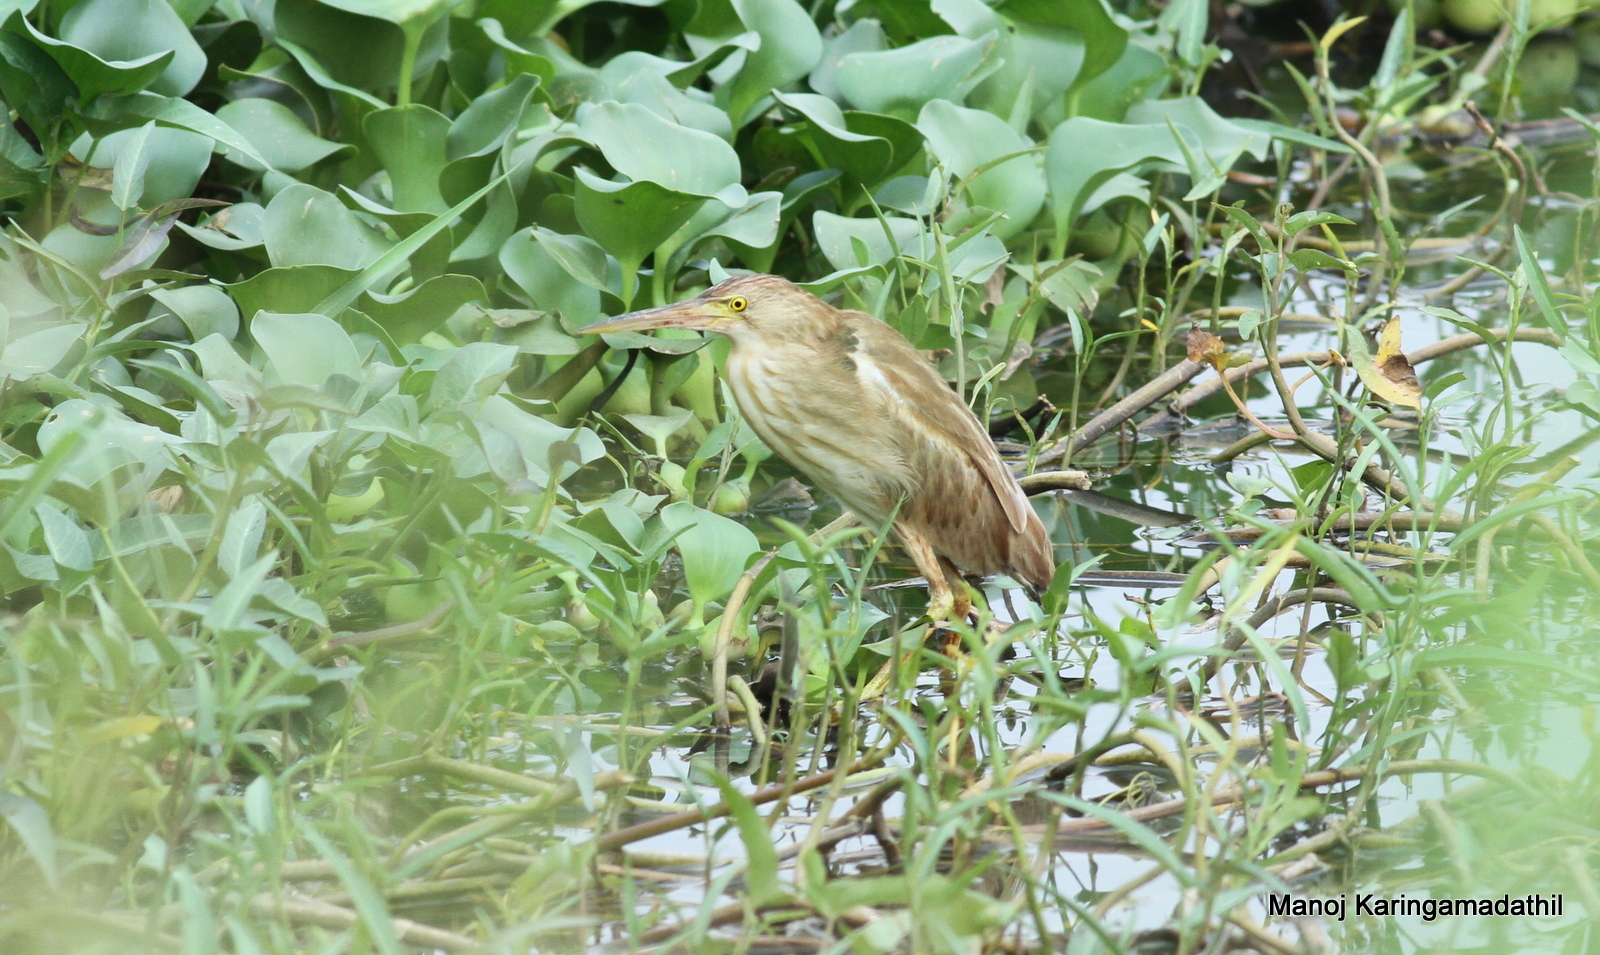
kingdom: Animalia
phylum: Chordata
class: Aves
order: Pelecaniformes
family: Ardeidae
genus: Ixobrychus
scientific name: Ixobrychus sinensis
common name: Yellow bittern
